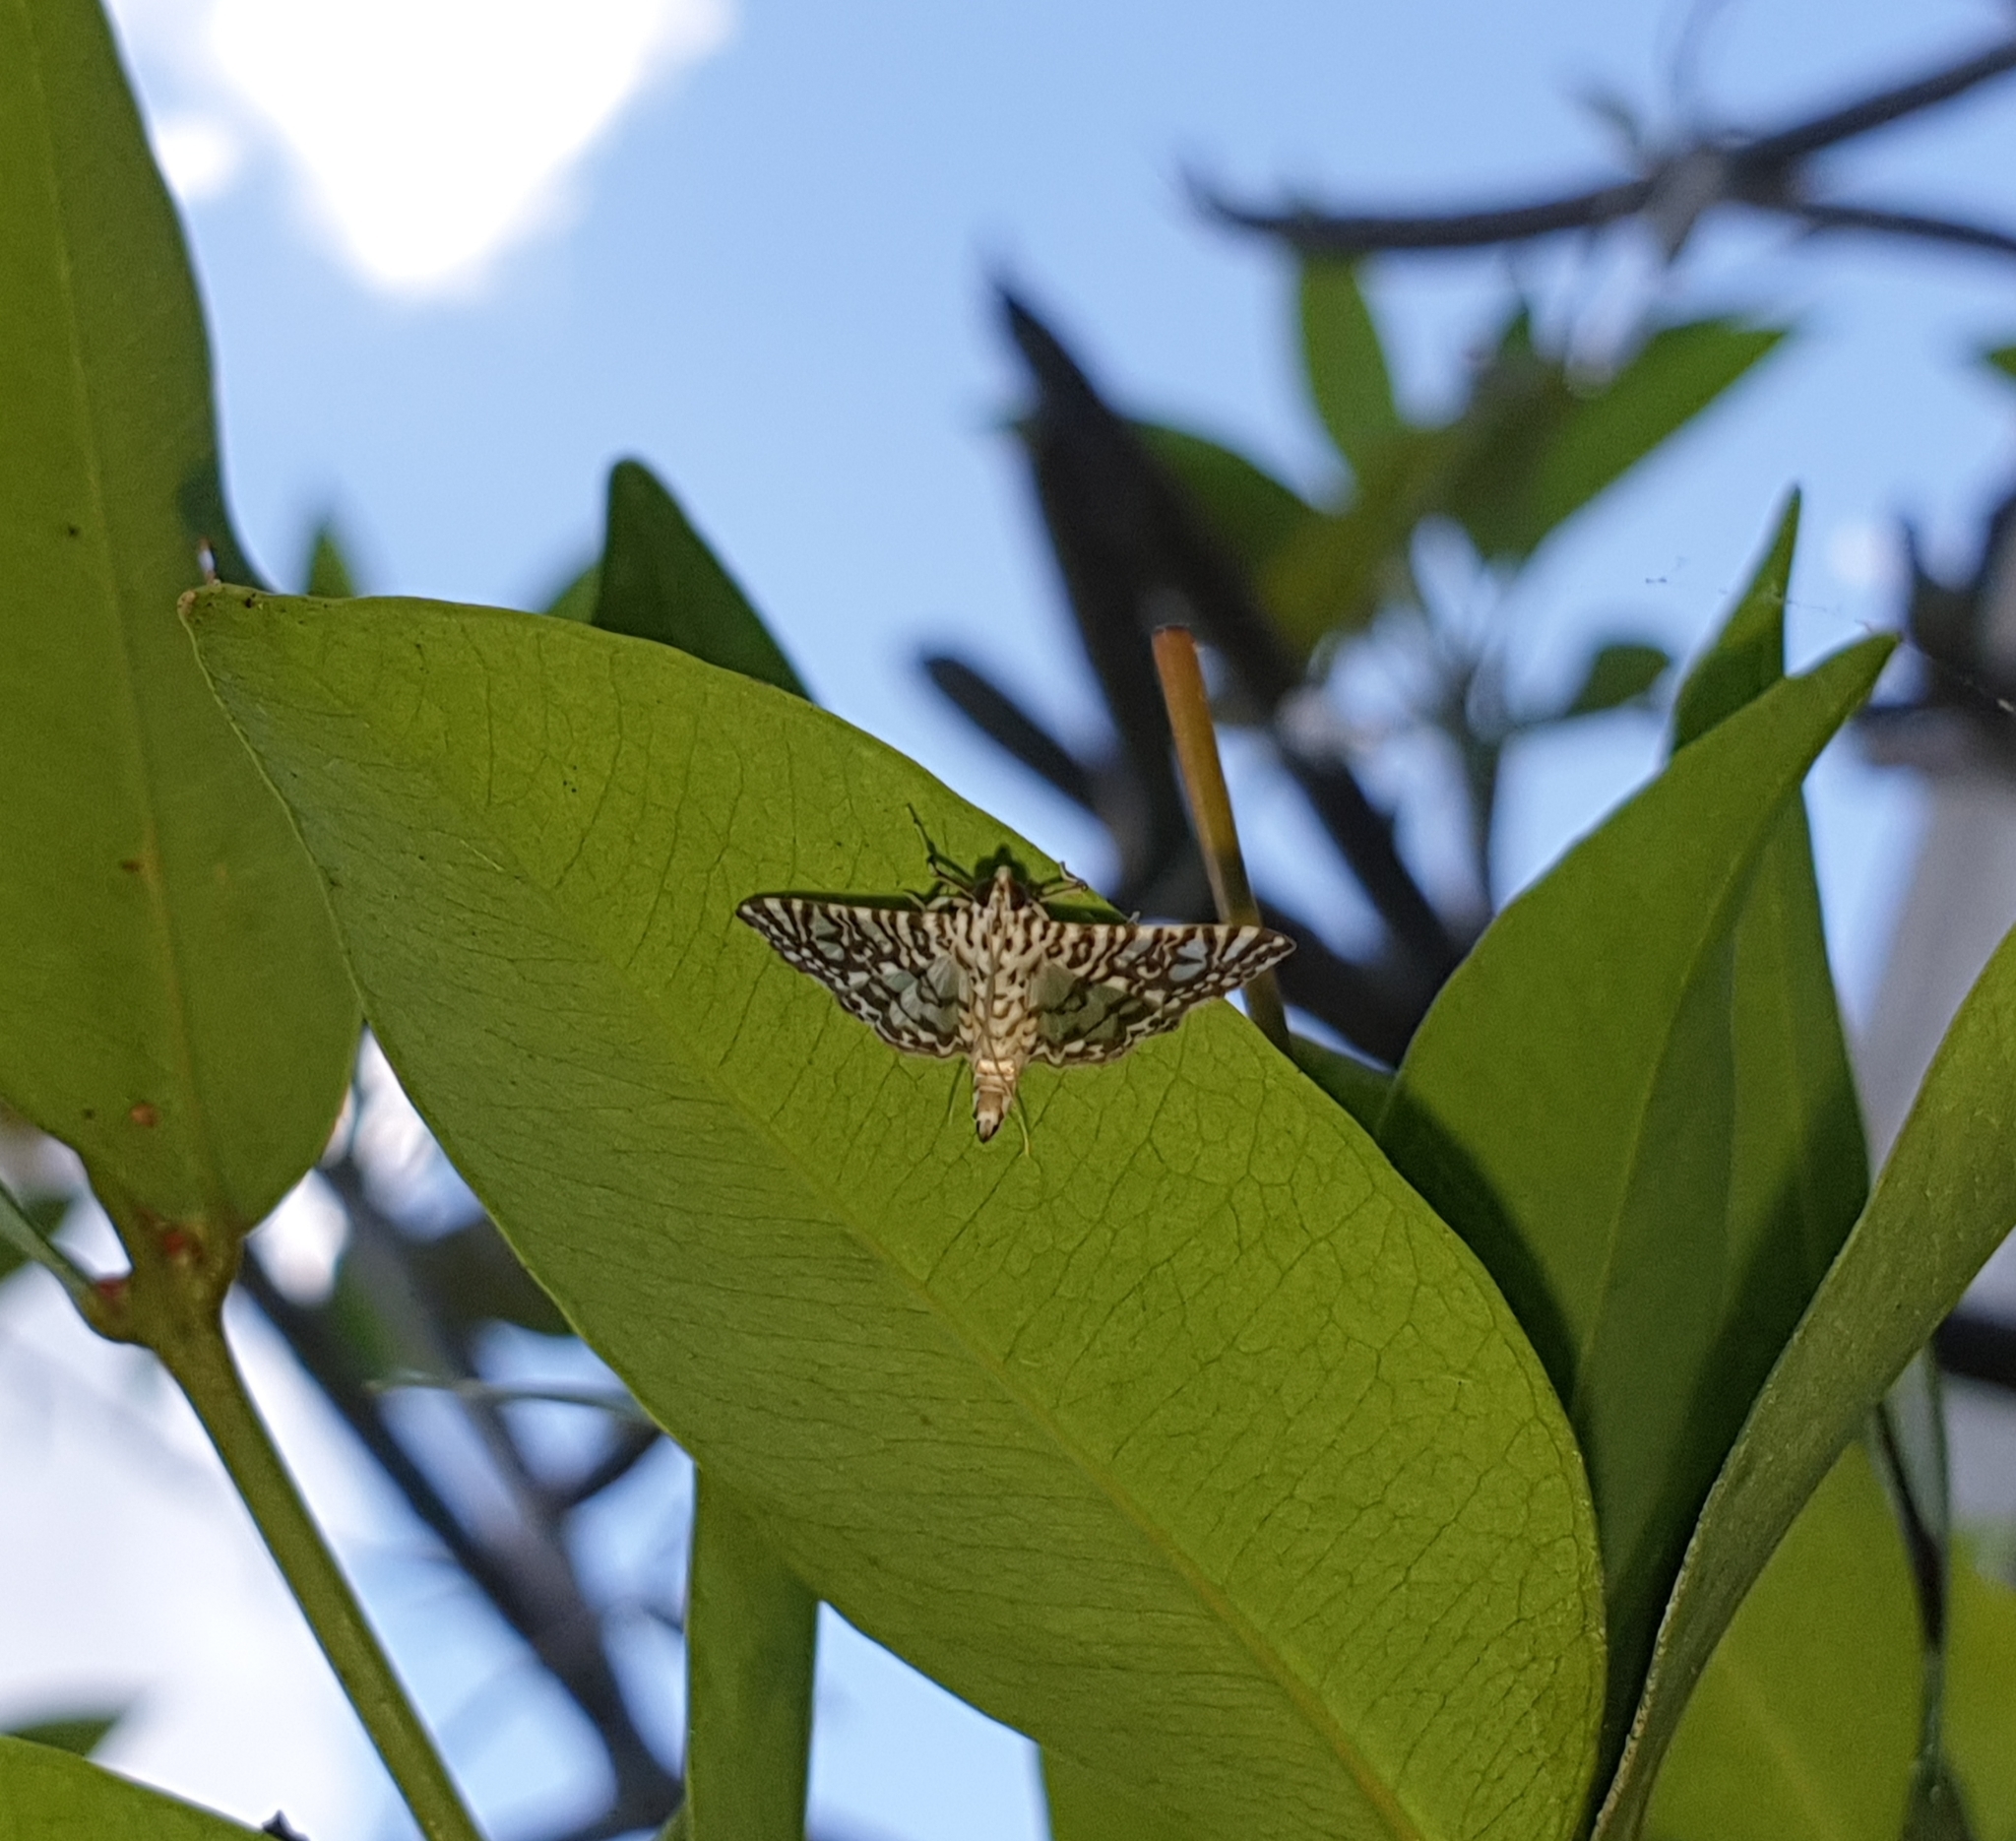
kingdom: Animalia
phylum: Arthropoda
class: Insecta
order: Lepidoptera
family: Crambidae
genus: Glyphodes
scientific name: Glyphodes onychinalis
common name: Swan plant moth
